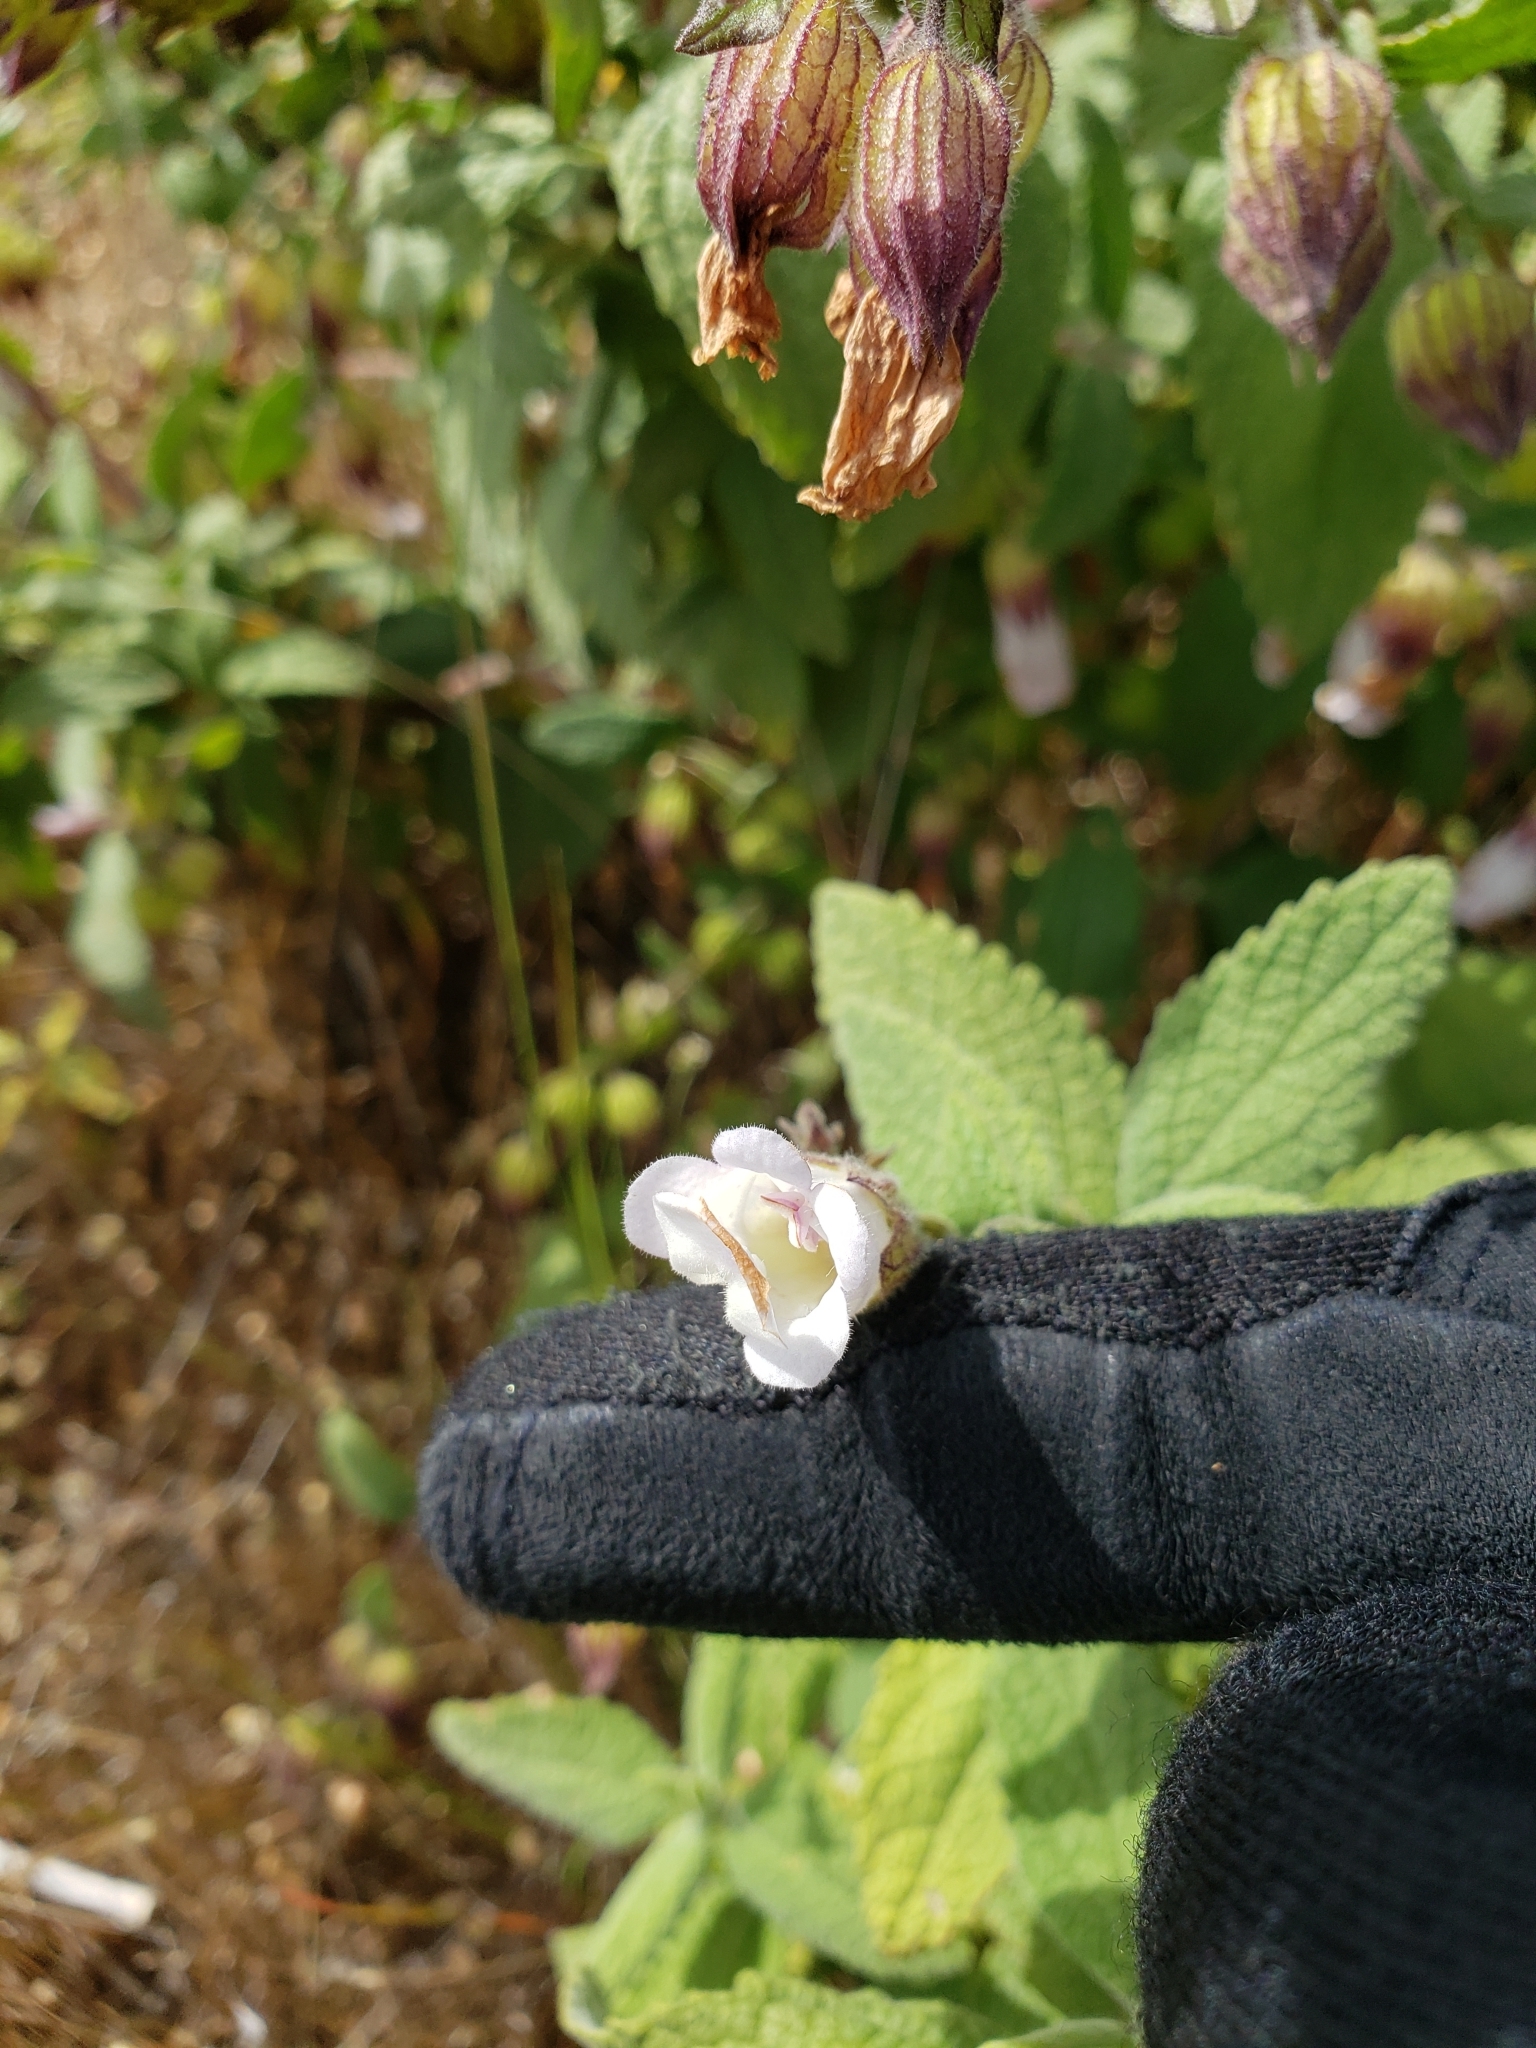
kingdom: Plantae
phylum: Tracheophyta
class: Magnoliopsida
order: Lamiales
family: Lamiaceae
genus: Lepechinia
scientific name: Lepechinia calycina
